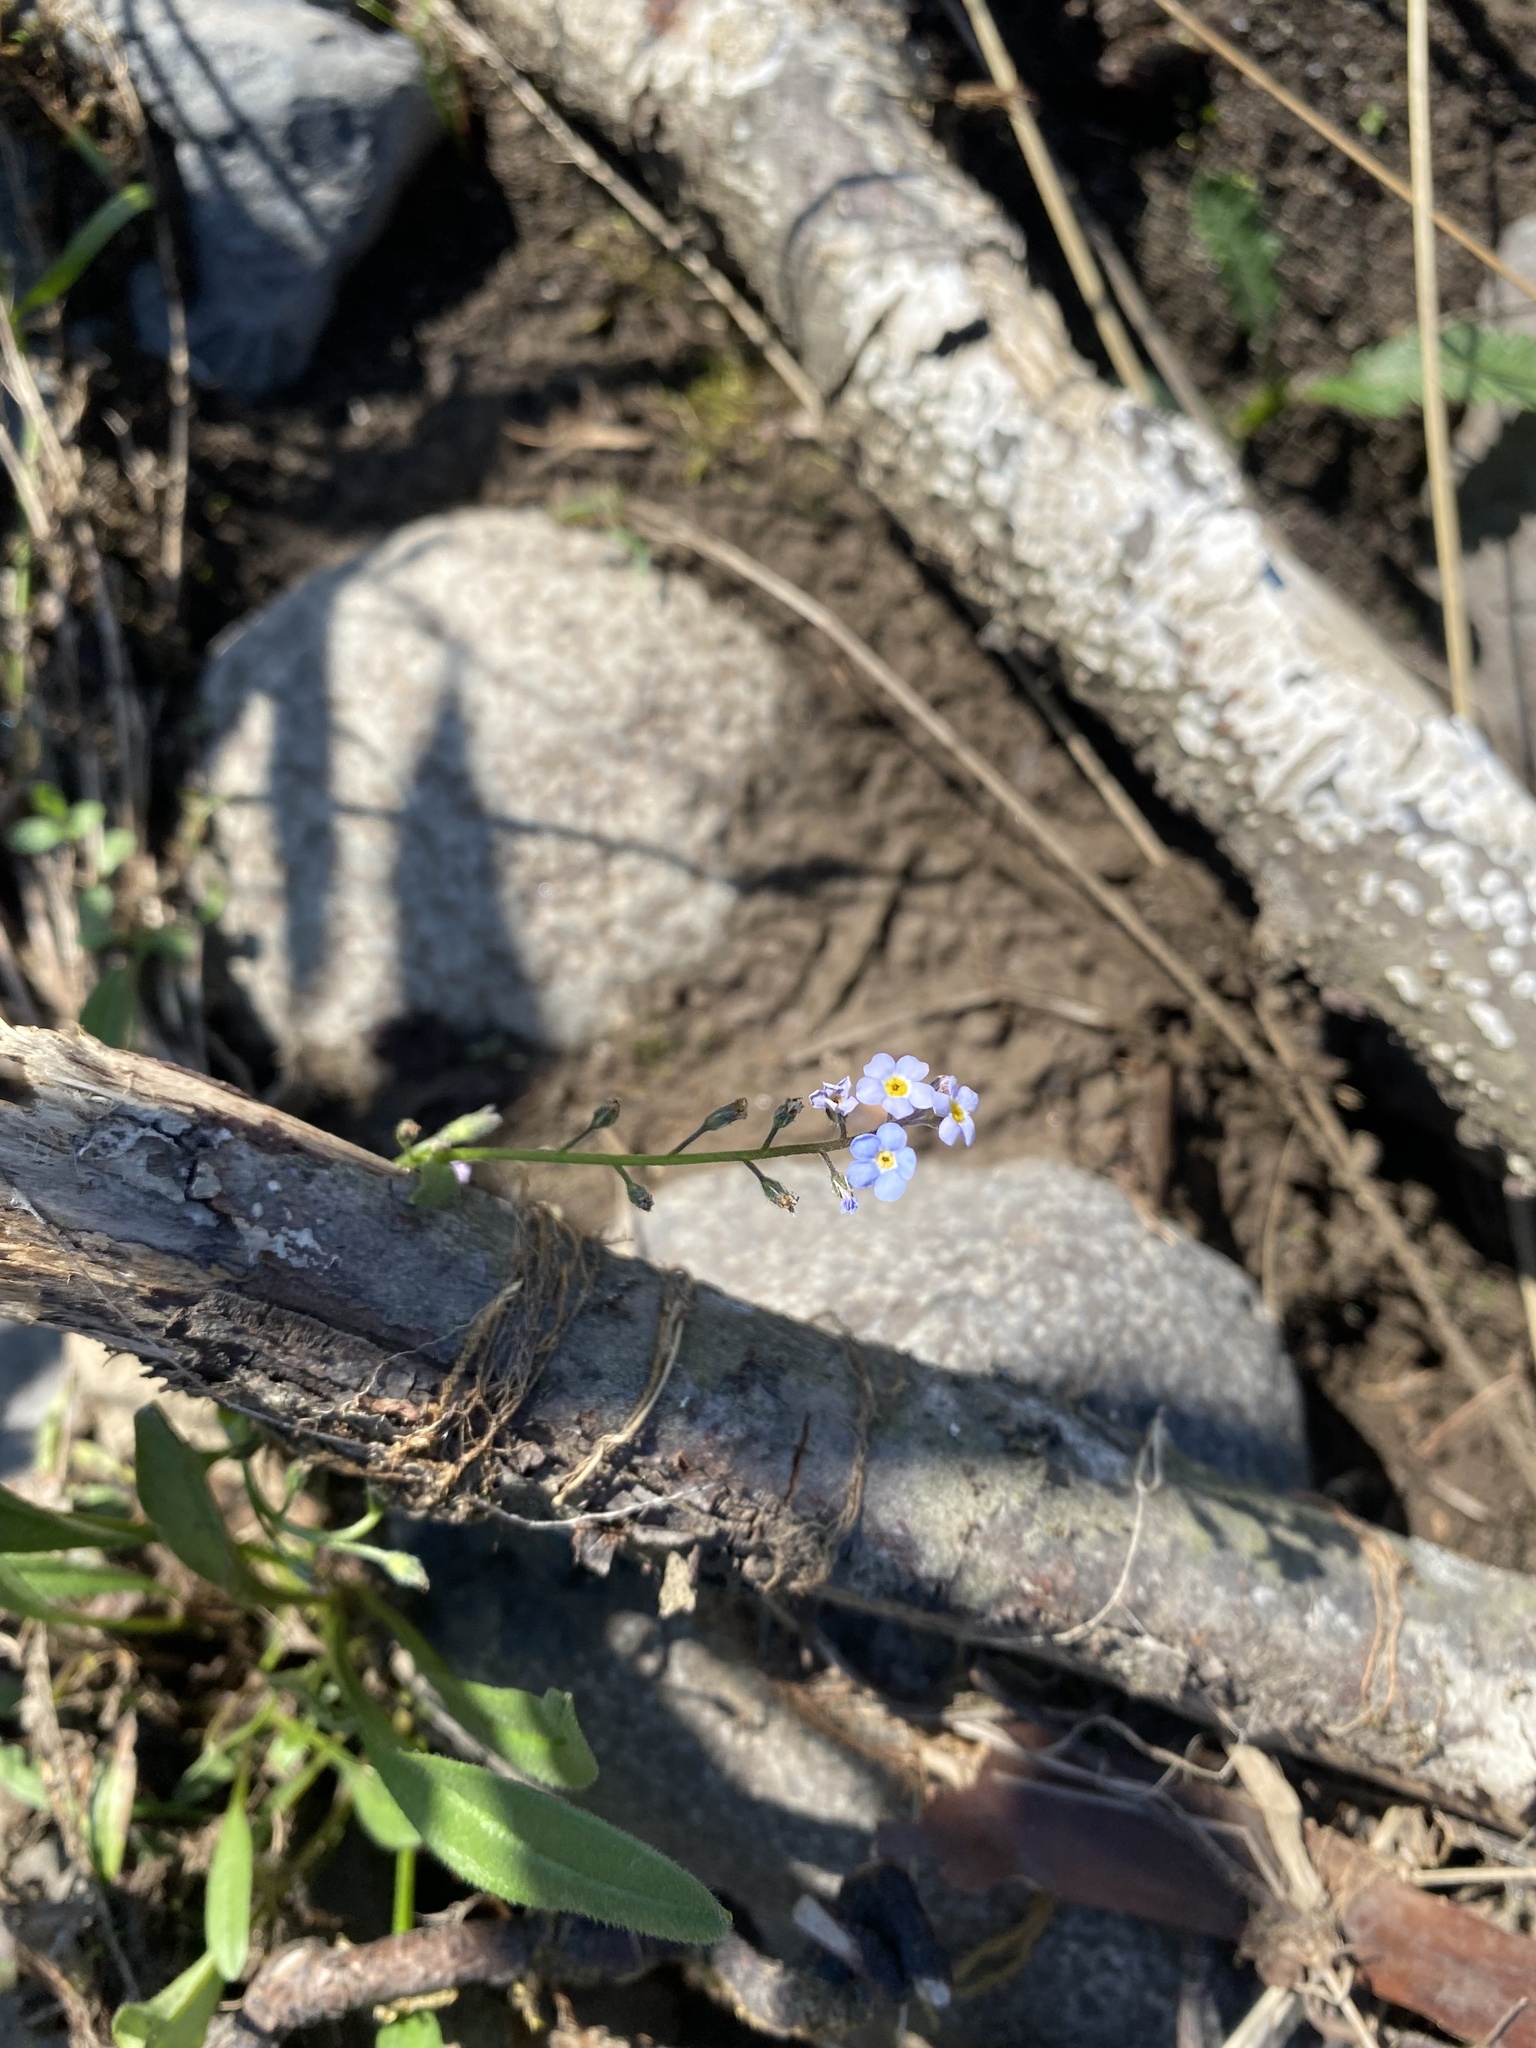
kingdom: Plantae
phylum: Tracheophyta
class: Magnoliopsida
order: Boraginales
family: Boraginaceae
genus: Myosotis
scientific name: Myosotis asiatica
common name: Asian forget-me-not
